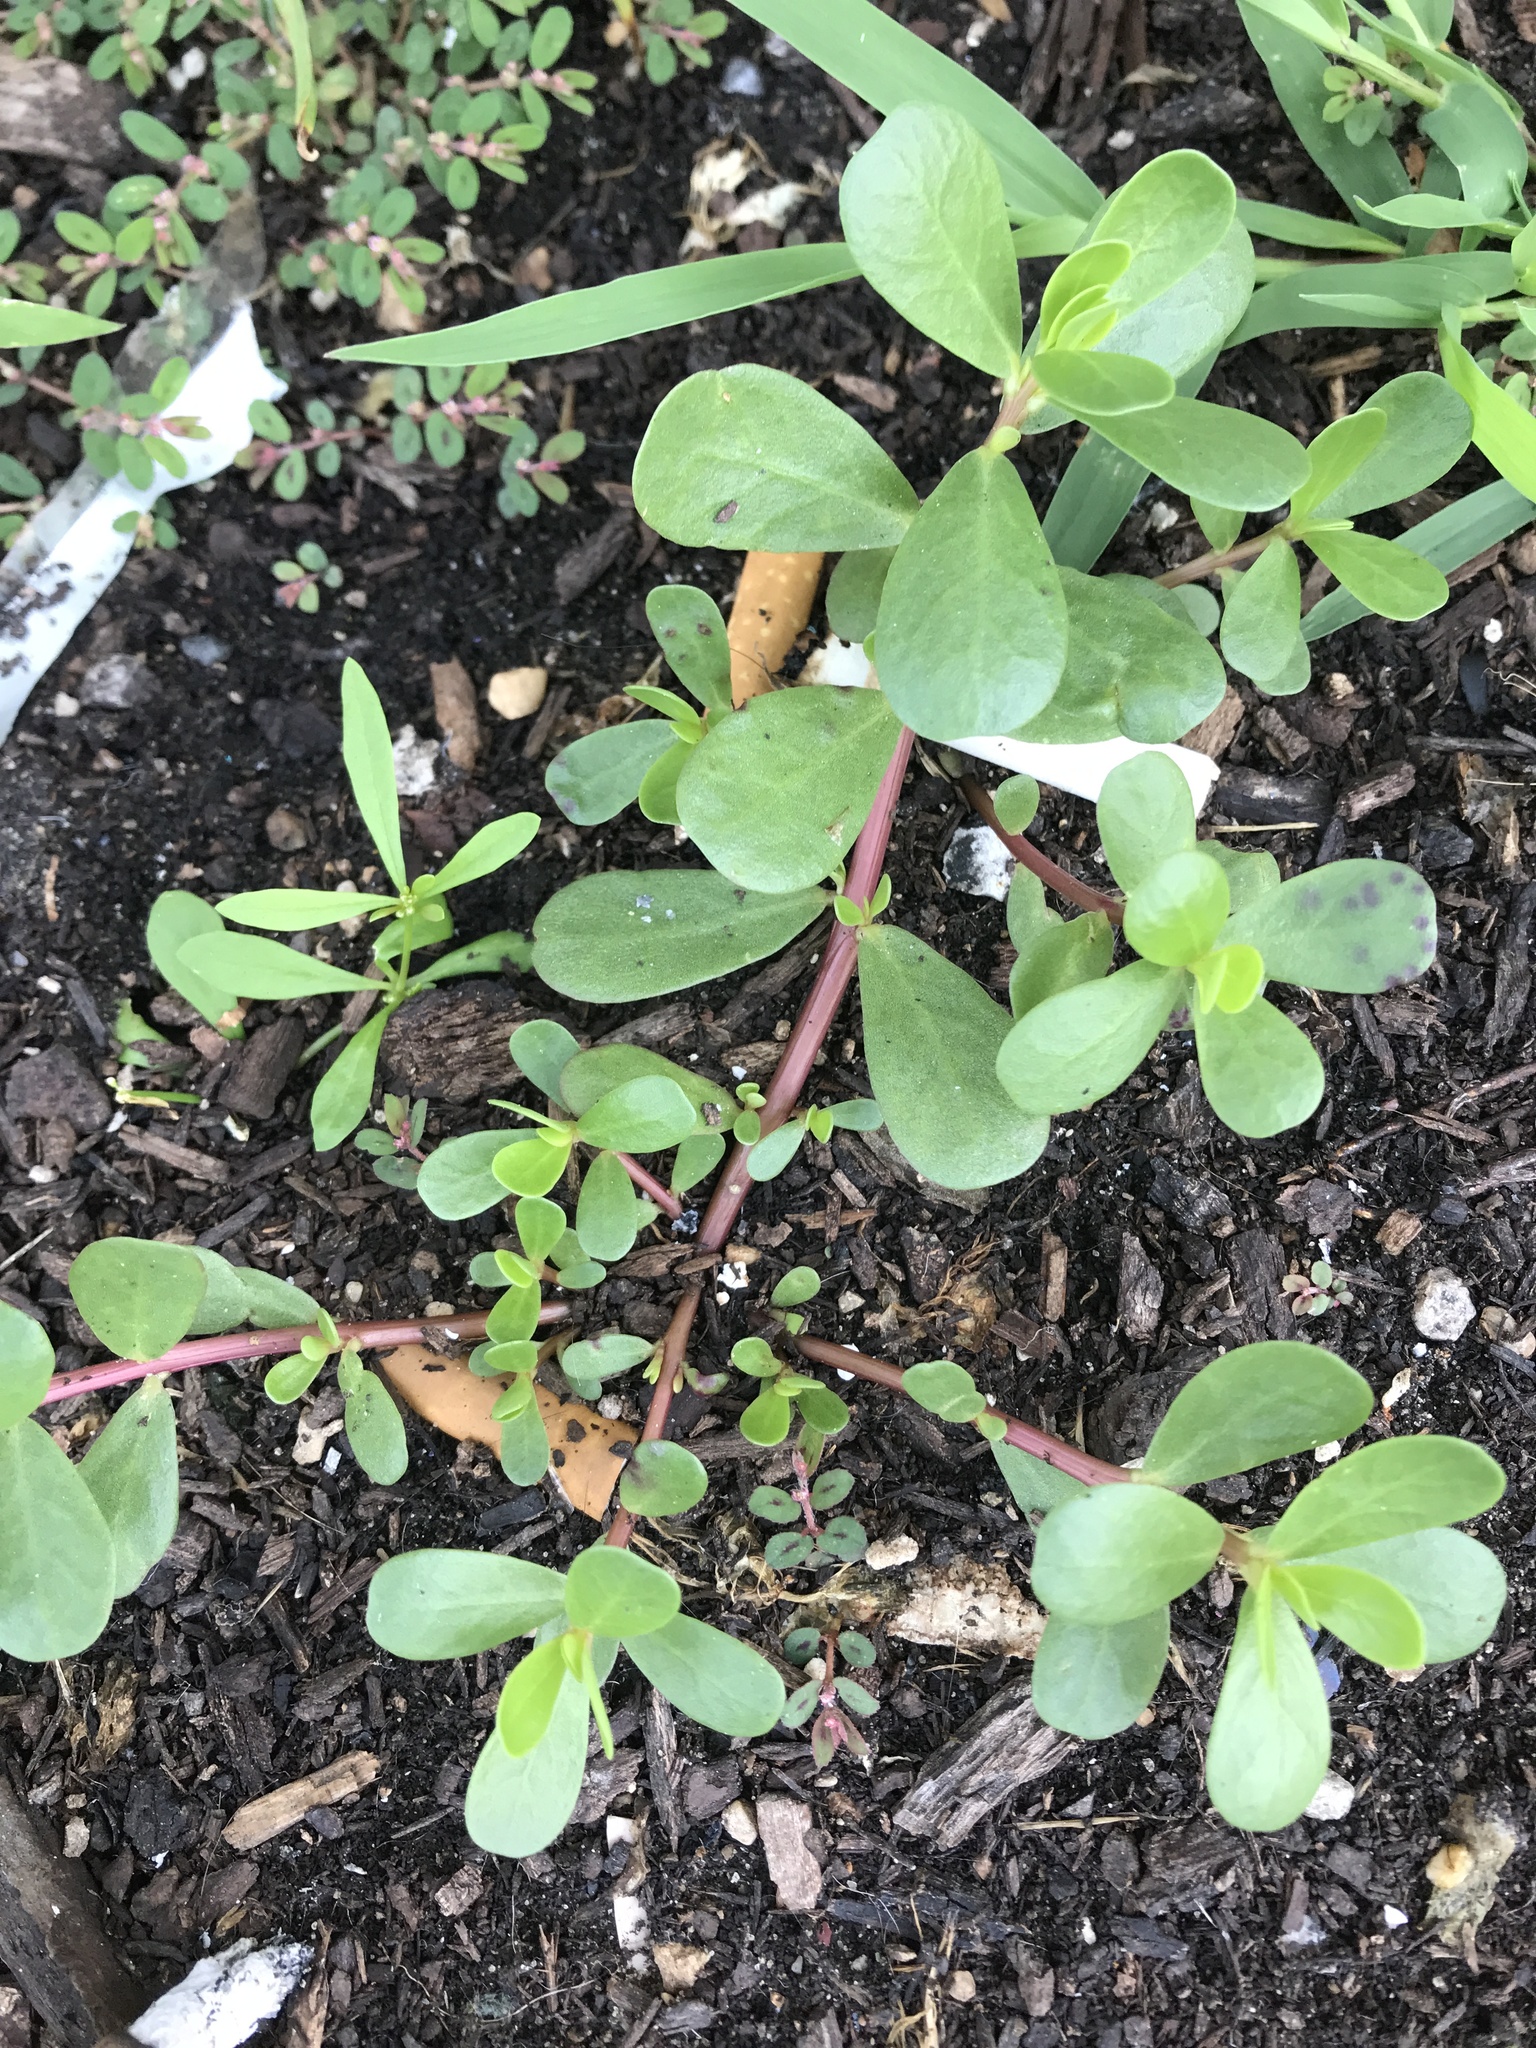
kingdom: Plantae
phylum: Tracheophyta
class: Magnoliopsida
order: Caryophyllales
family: Portulacaceae
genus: Portulaca
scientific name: Portulaca oleracea
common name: Common purslane
